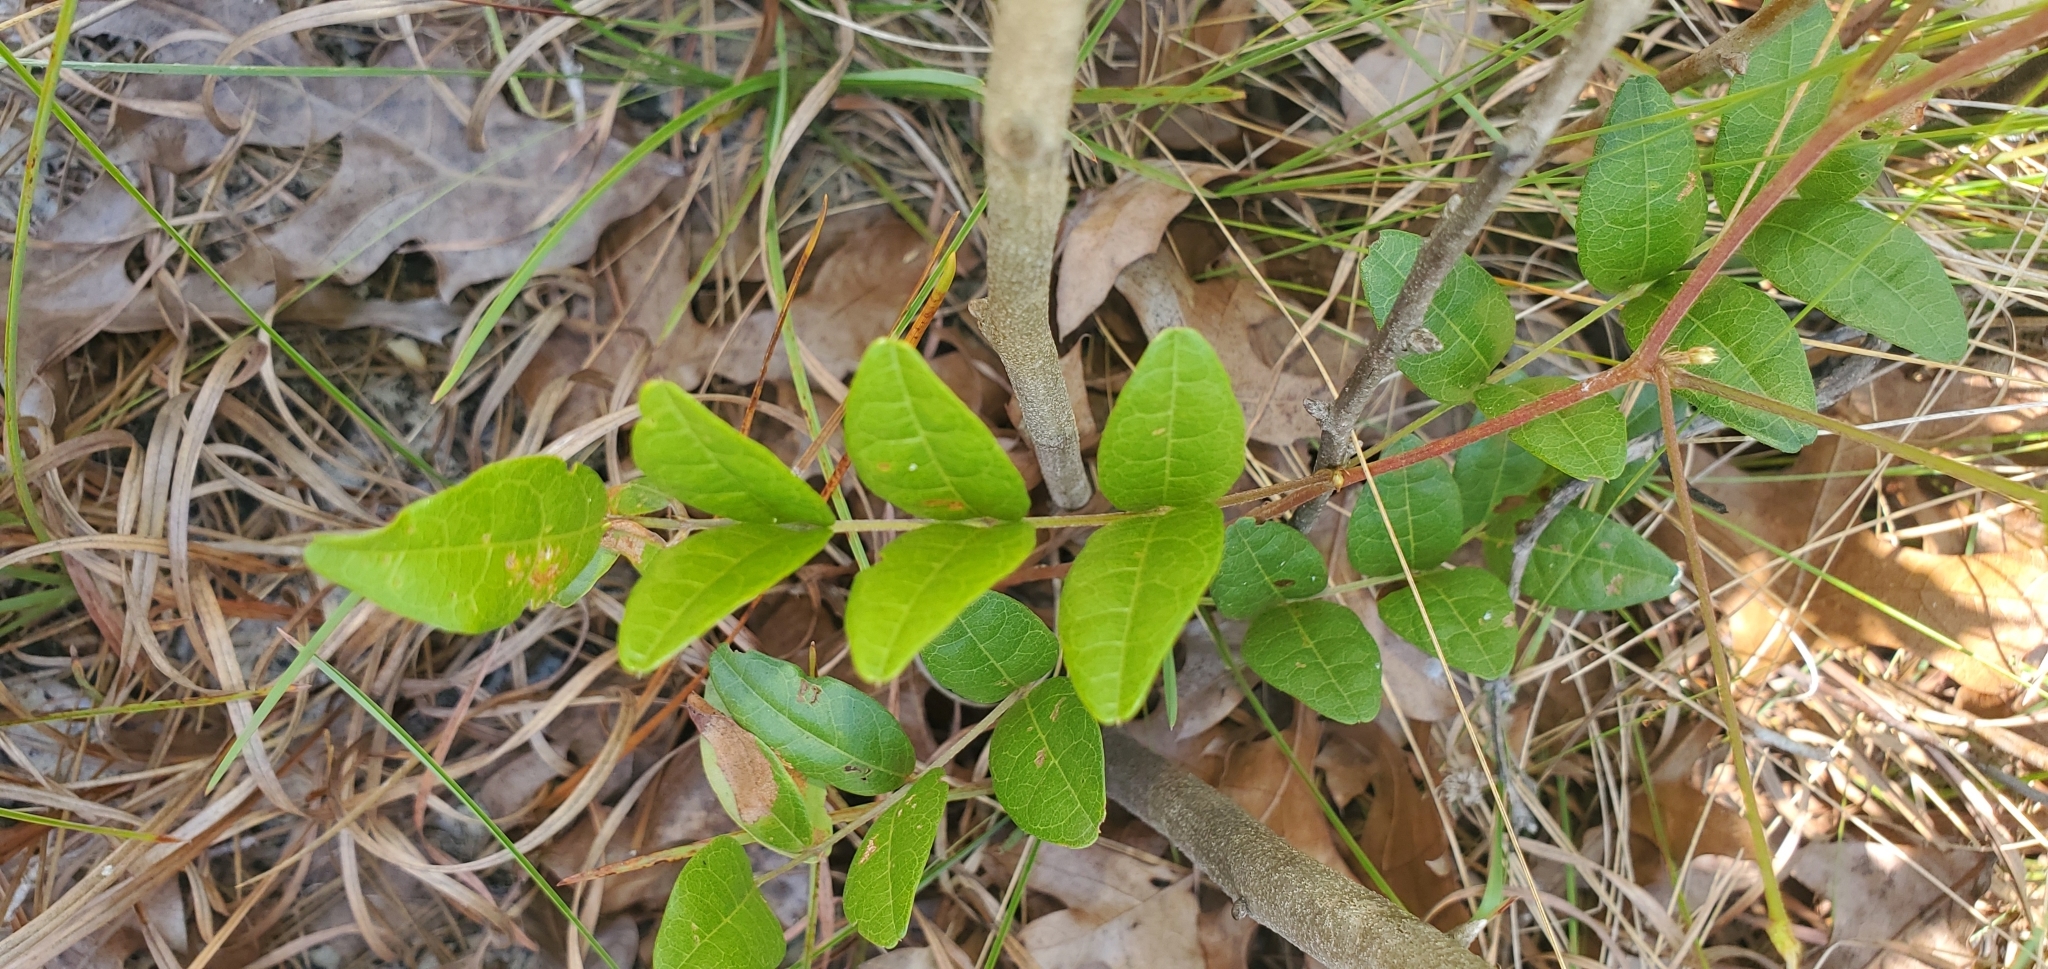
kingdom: Plantae
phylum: Tracheophyta
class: Magnoliopsida
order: Fabales
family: Fabaceae
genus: Galactia
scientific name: Galactia elliottii
